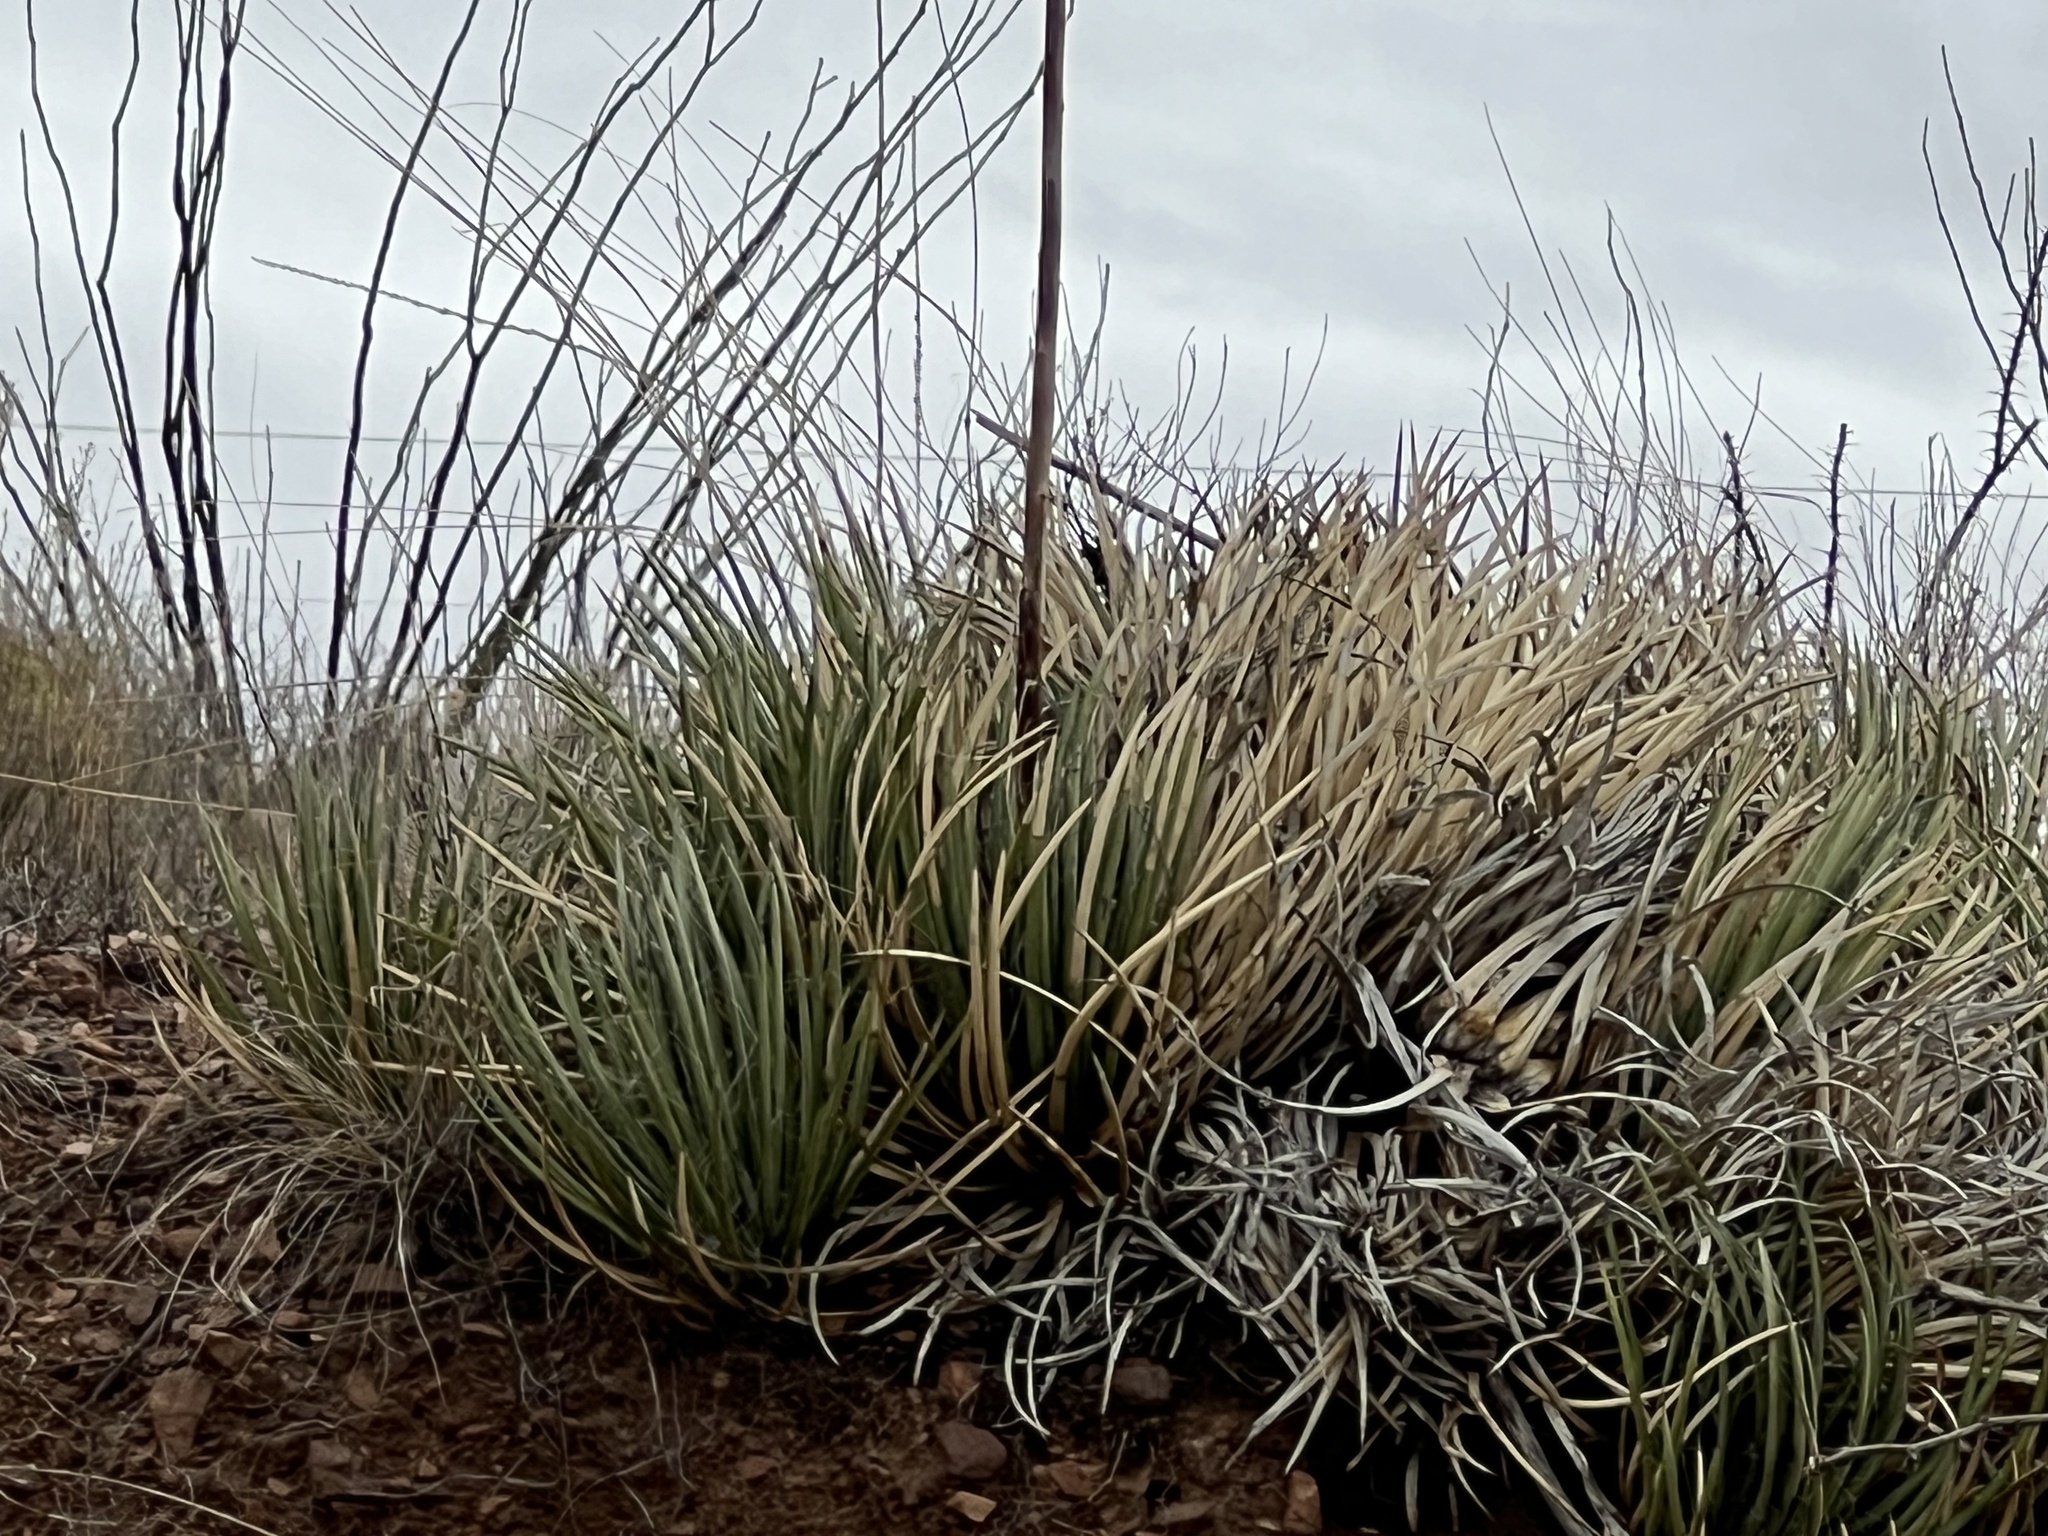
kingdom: Plantae
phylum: Tracheophyta
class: Liliopsida
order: Asparagales
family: Asparagaceae
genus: Agave
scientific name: Agave schottii
